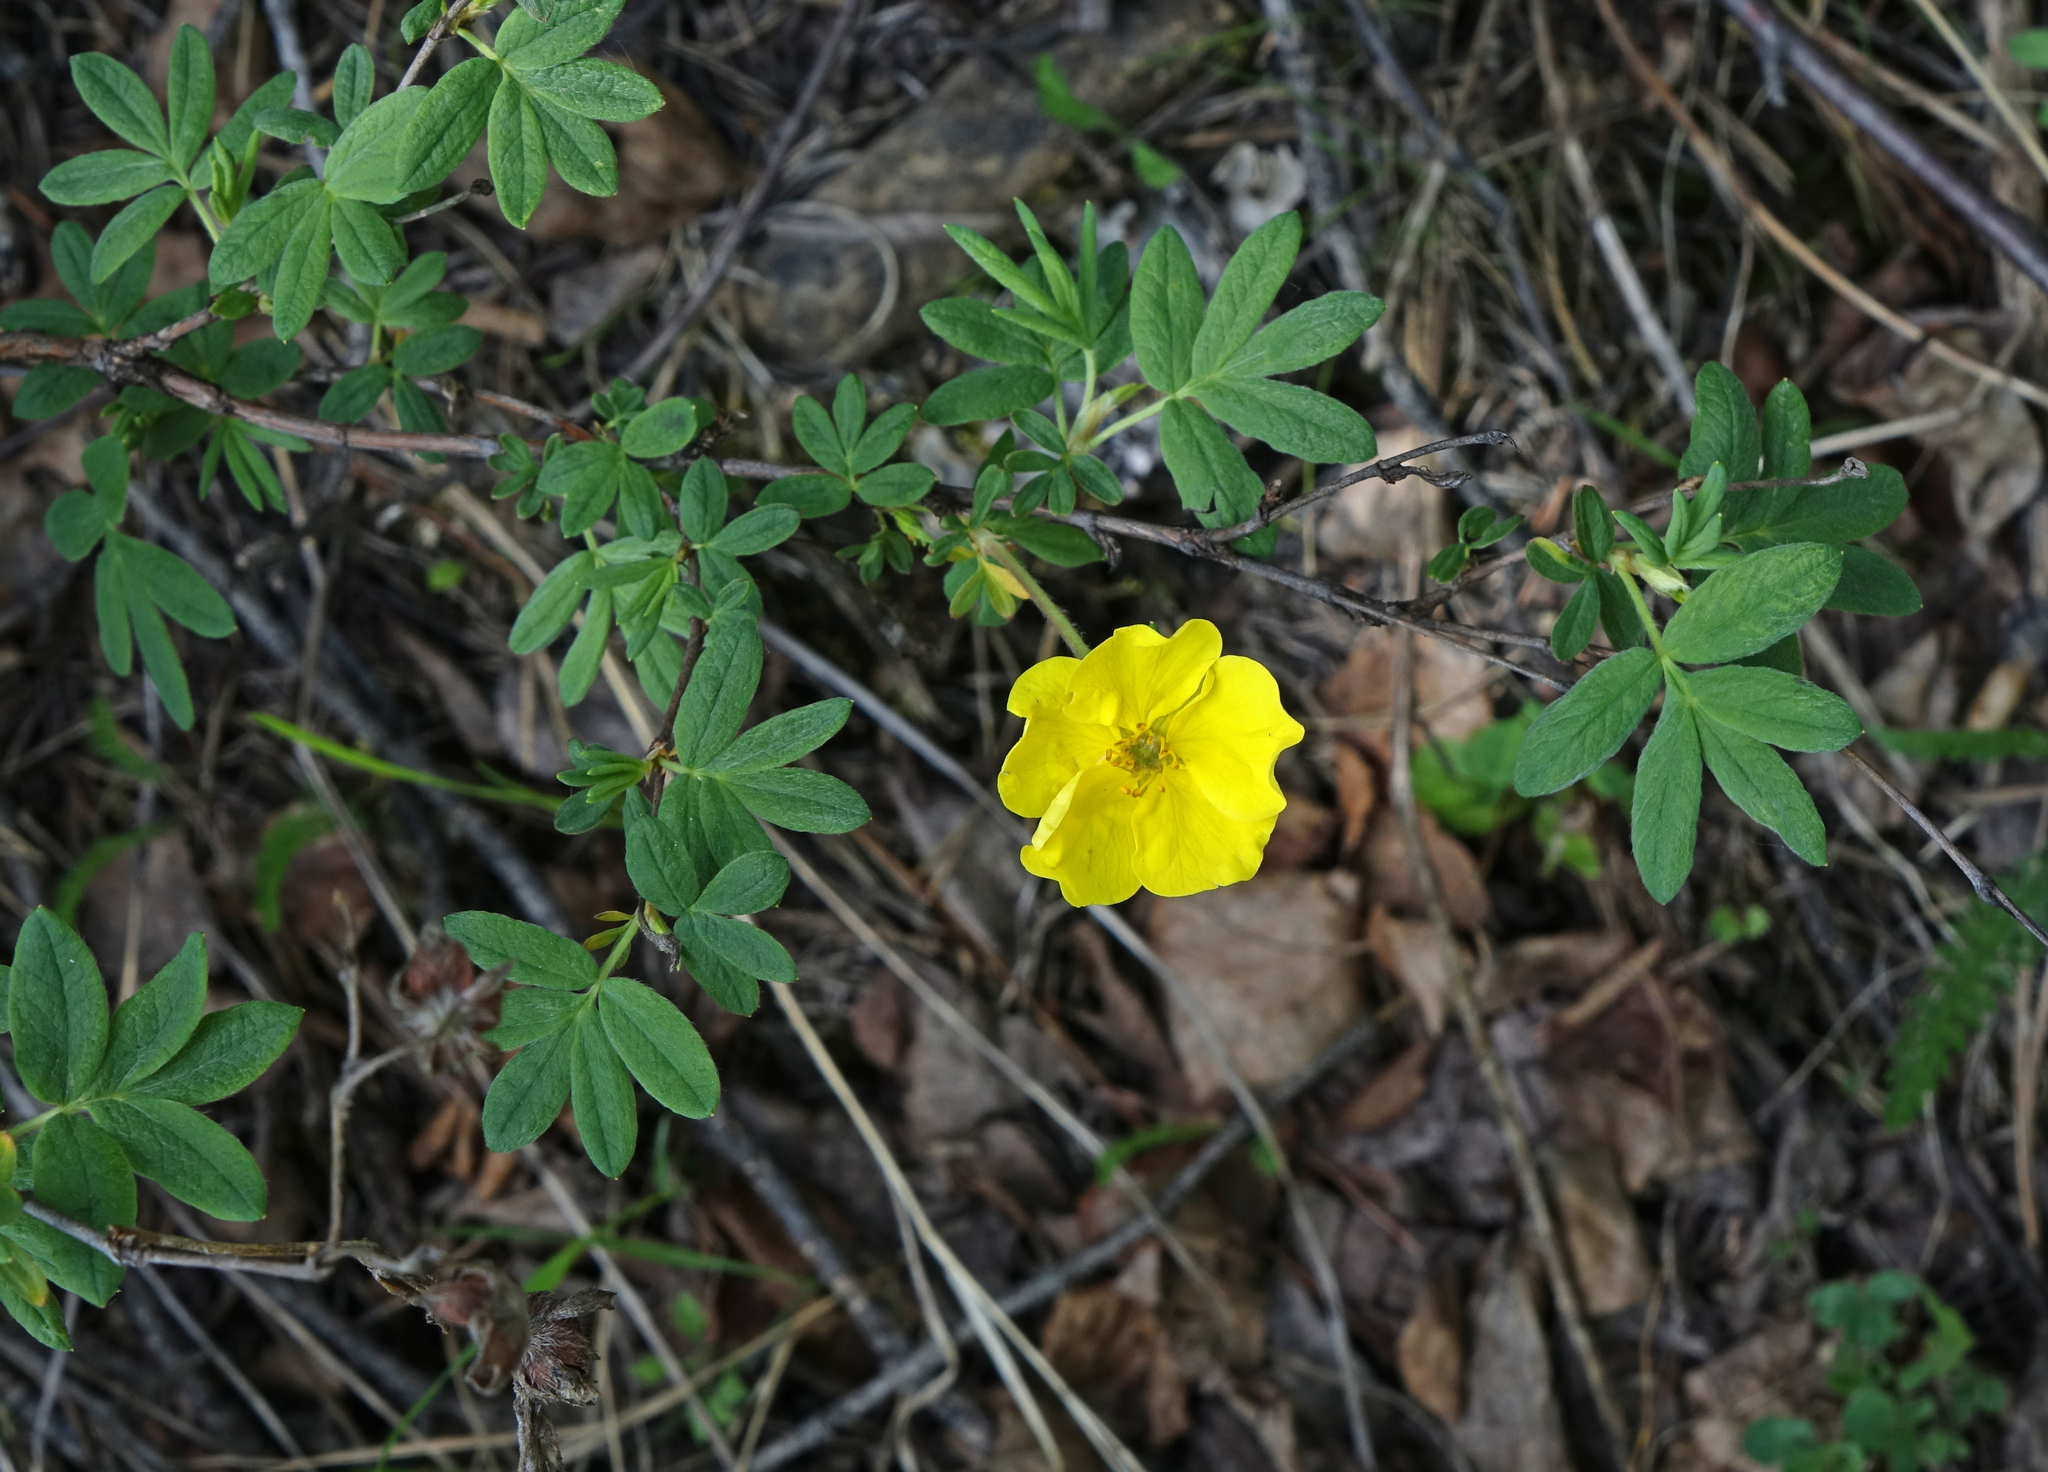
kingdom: Plantae
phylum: Tracheophyta
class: Magnoliopsida
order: Rosales
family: Rosaceae
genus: Dasiphora
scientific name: Dasiphora fruticosa
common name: Shrubby cinquefoil
